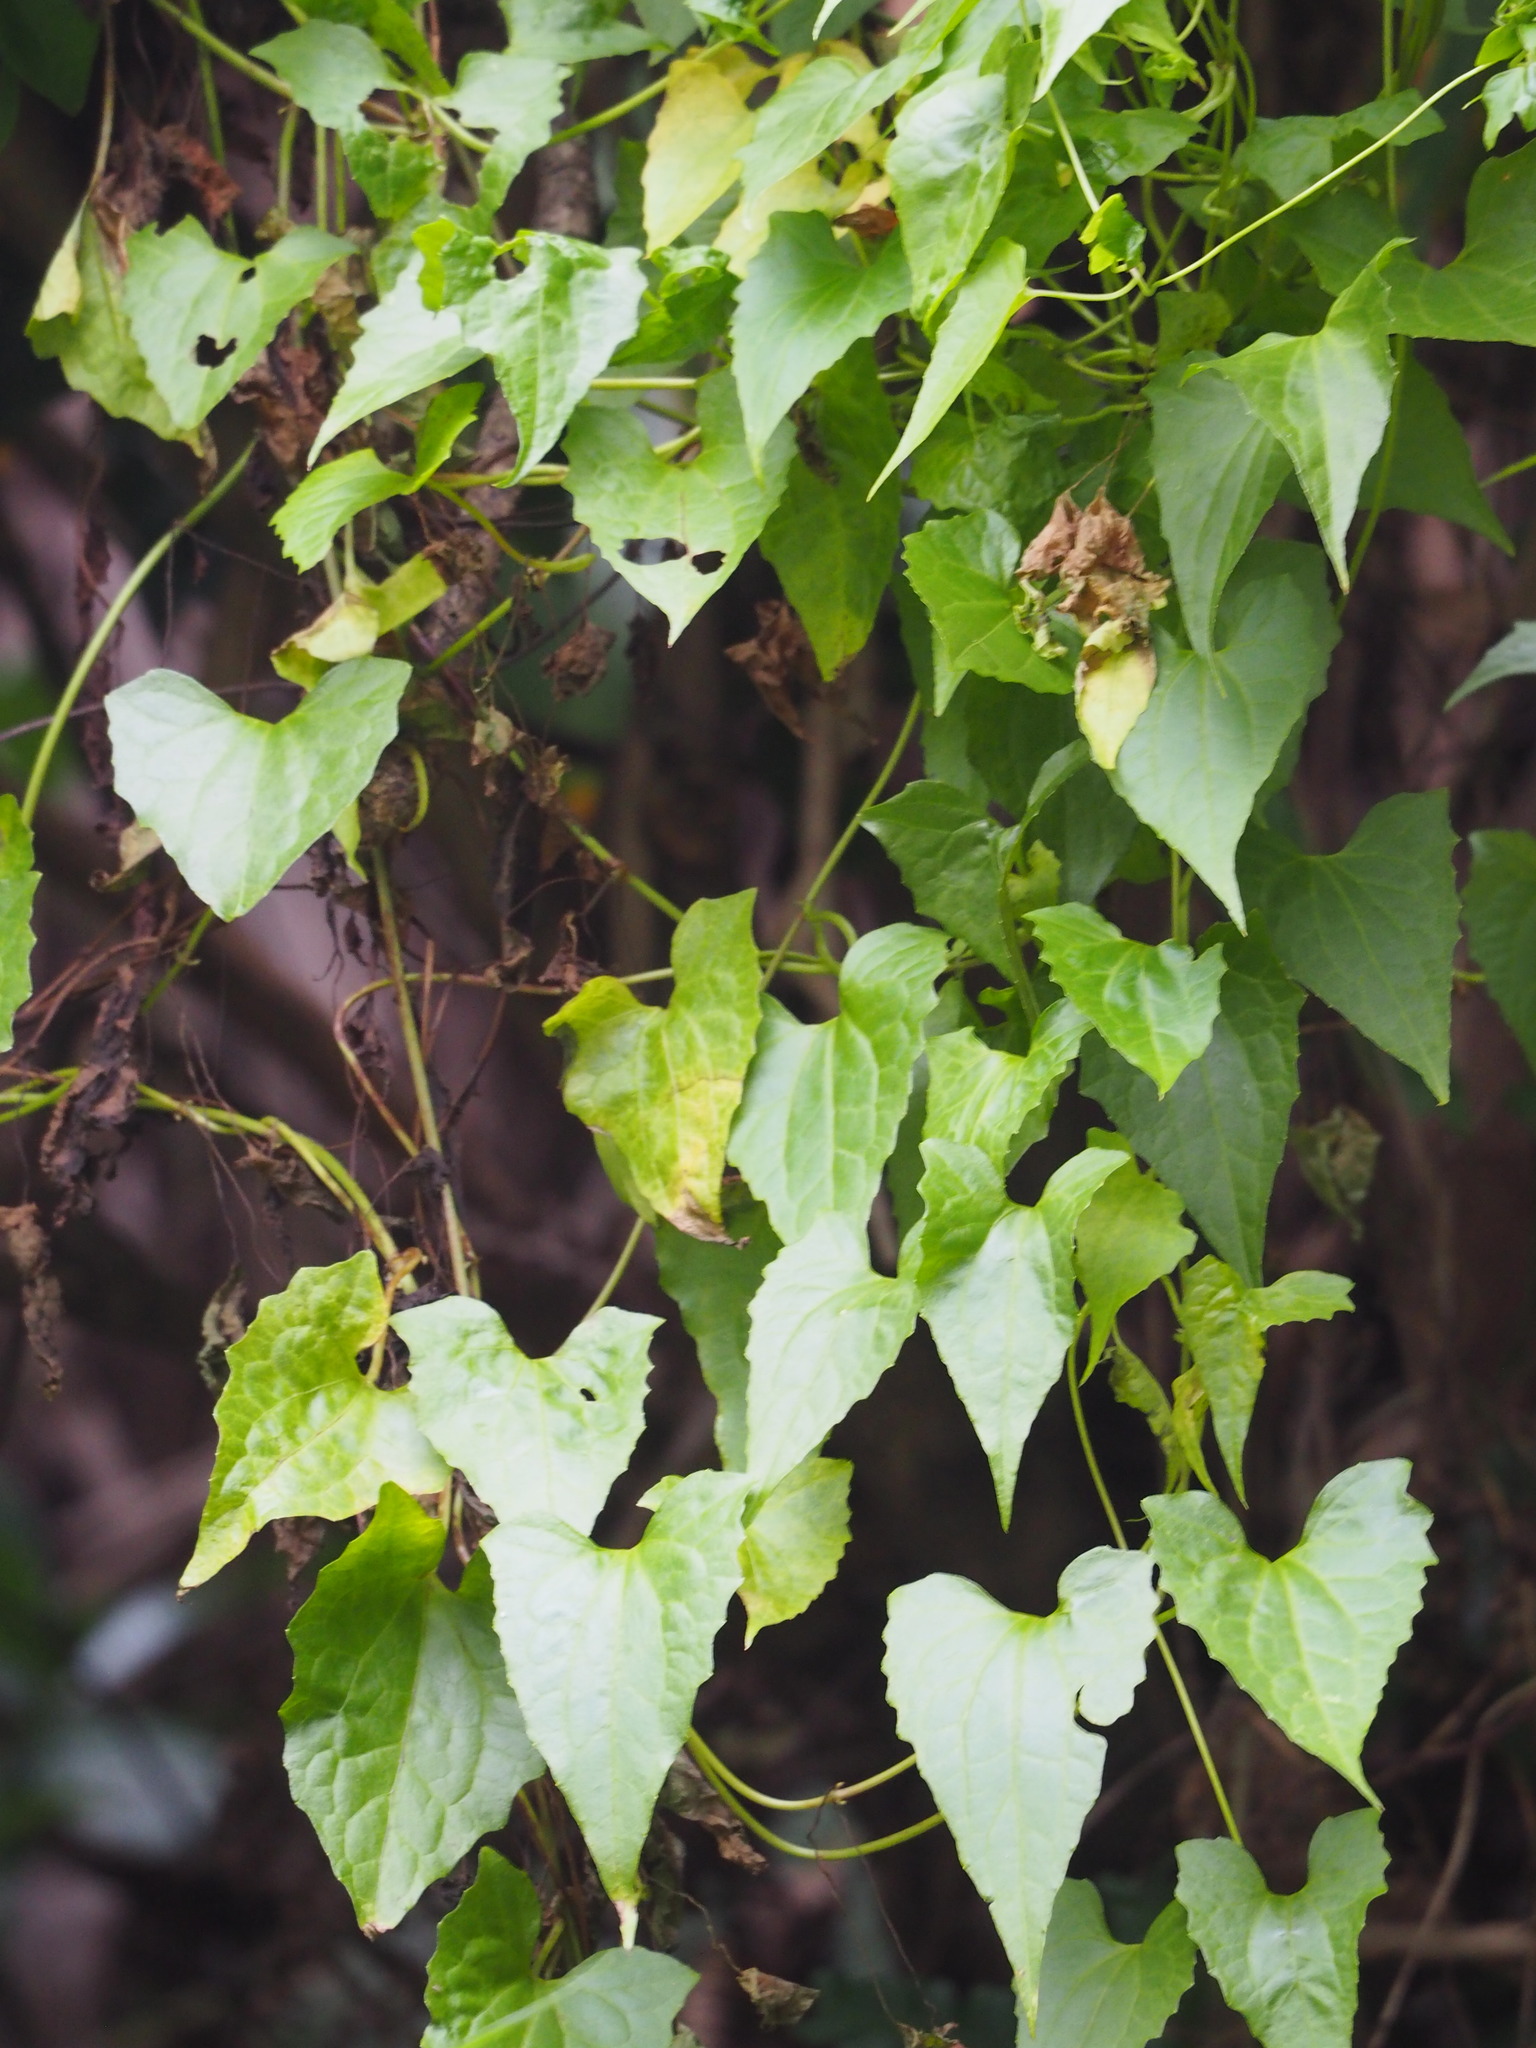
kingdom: Plantae
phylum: Tracheophyta
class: Magnoliopsida
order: Asterales
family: Asteraceae
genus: Mikania
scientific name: Mikania micrantha
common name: Mile-a-minute
